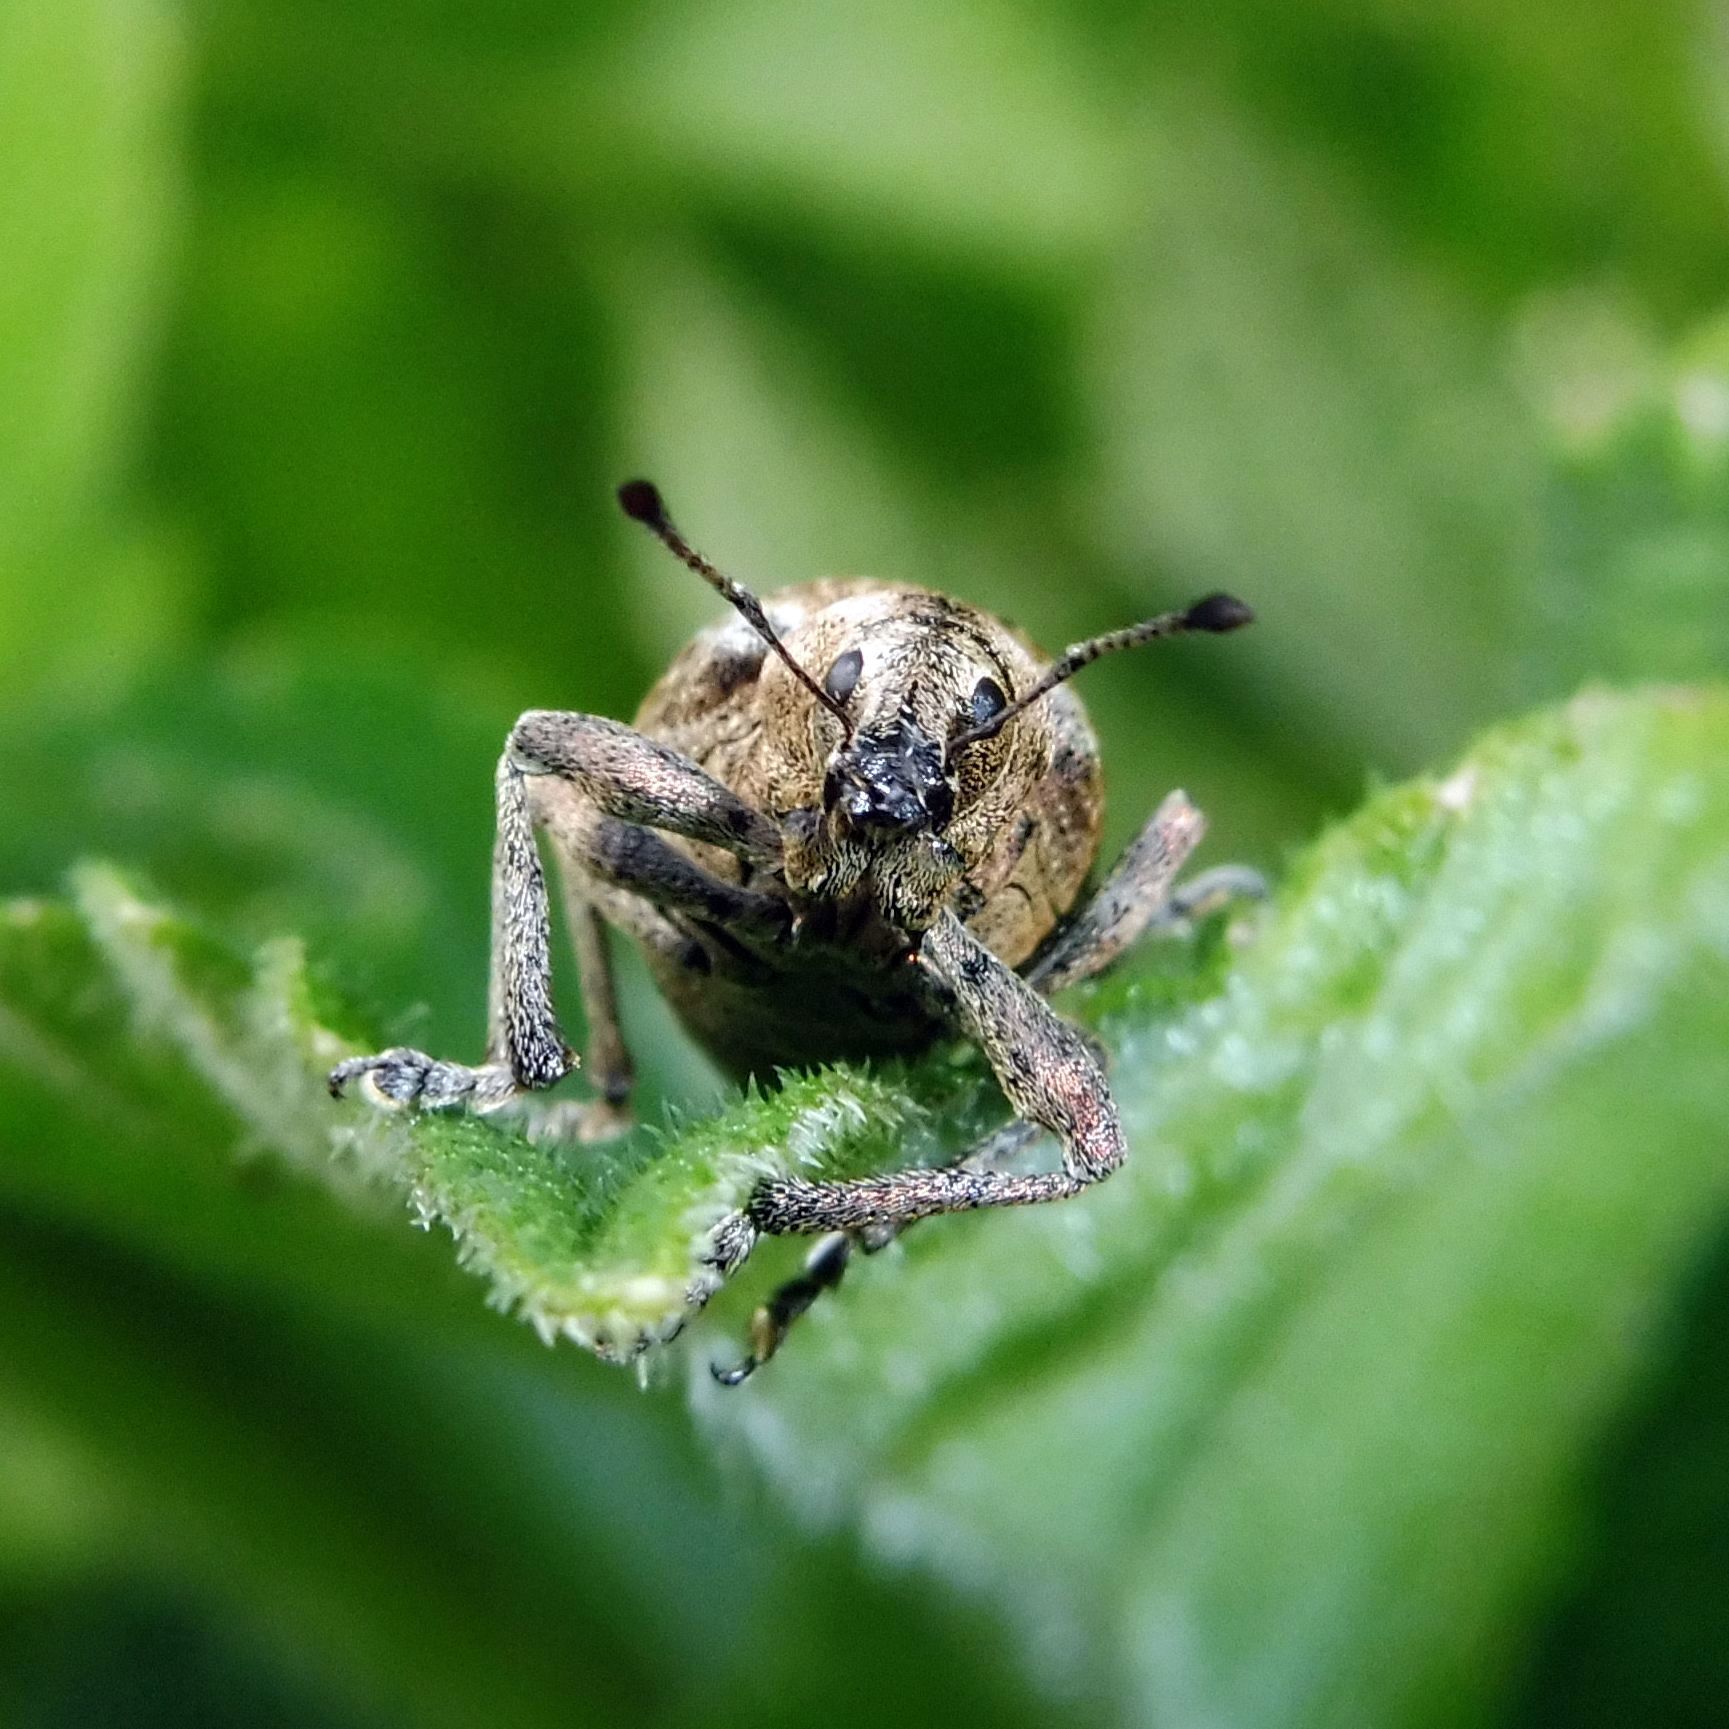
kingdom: Animalia
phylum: Arthropoda
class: Insecta
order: Coleoptera
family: Curculionidae
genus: Liophloeus
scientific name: Liophloeus tessulatus
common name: Weevil
